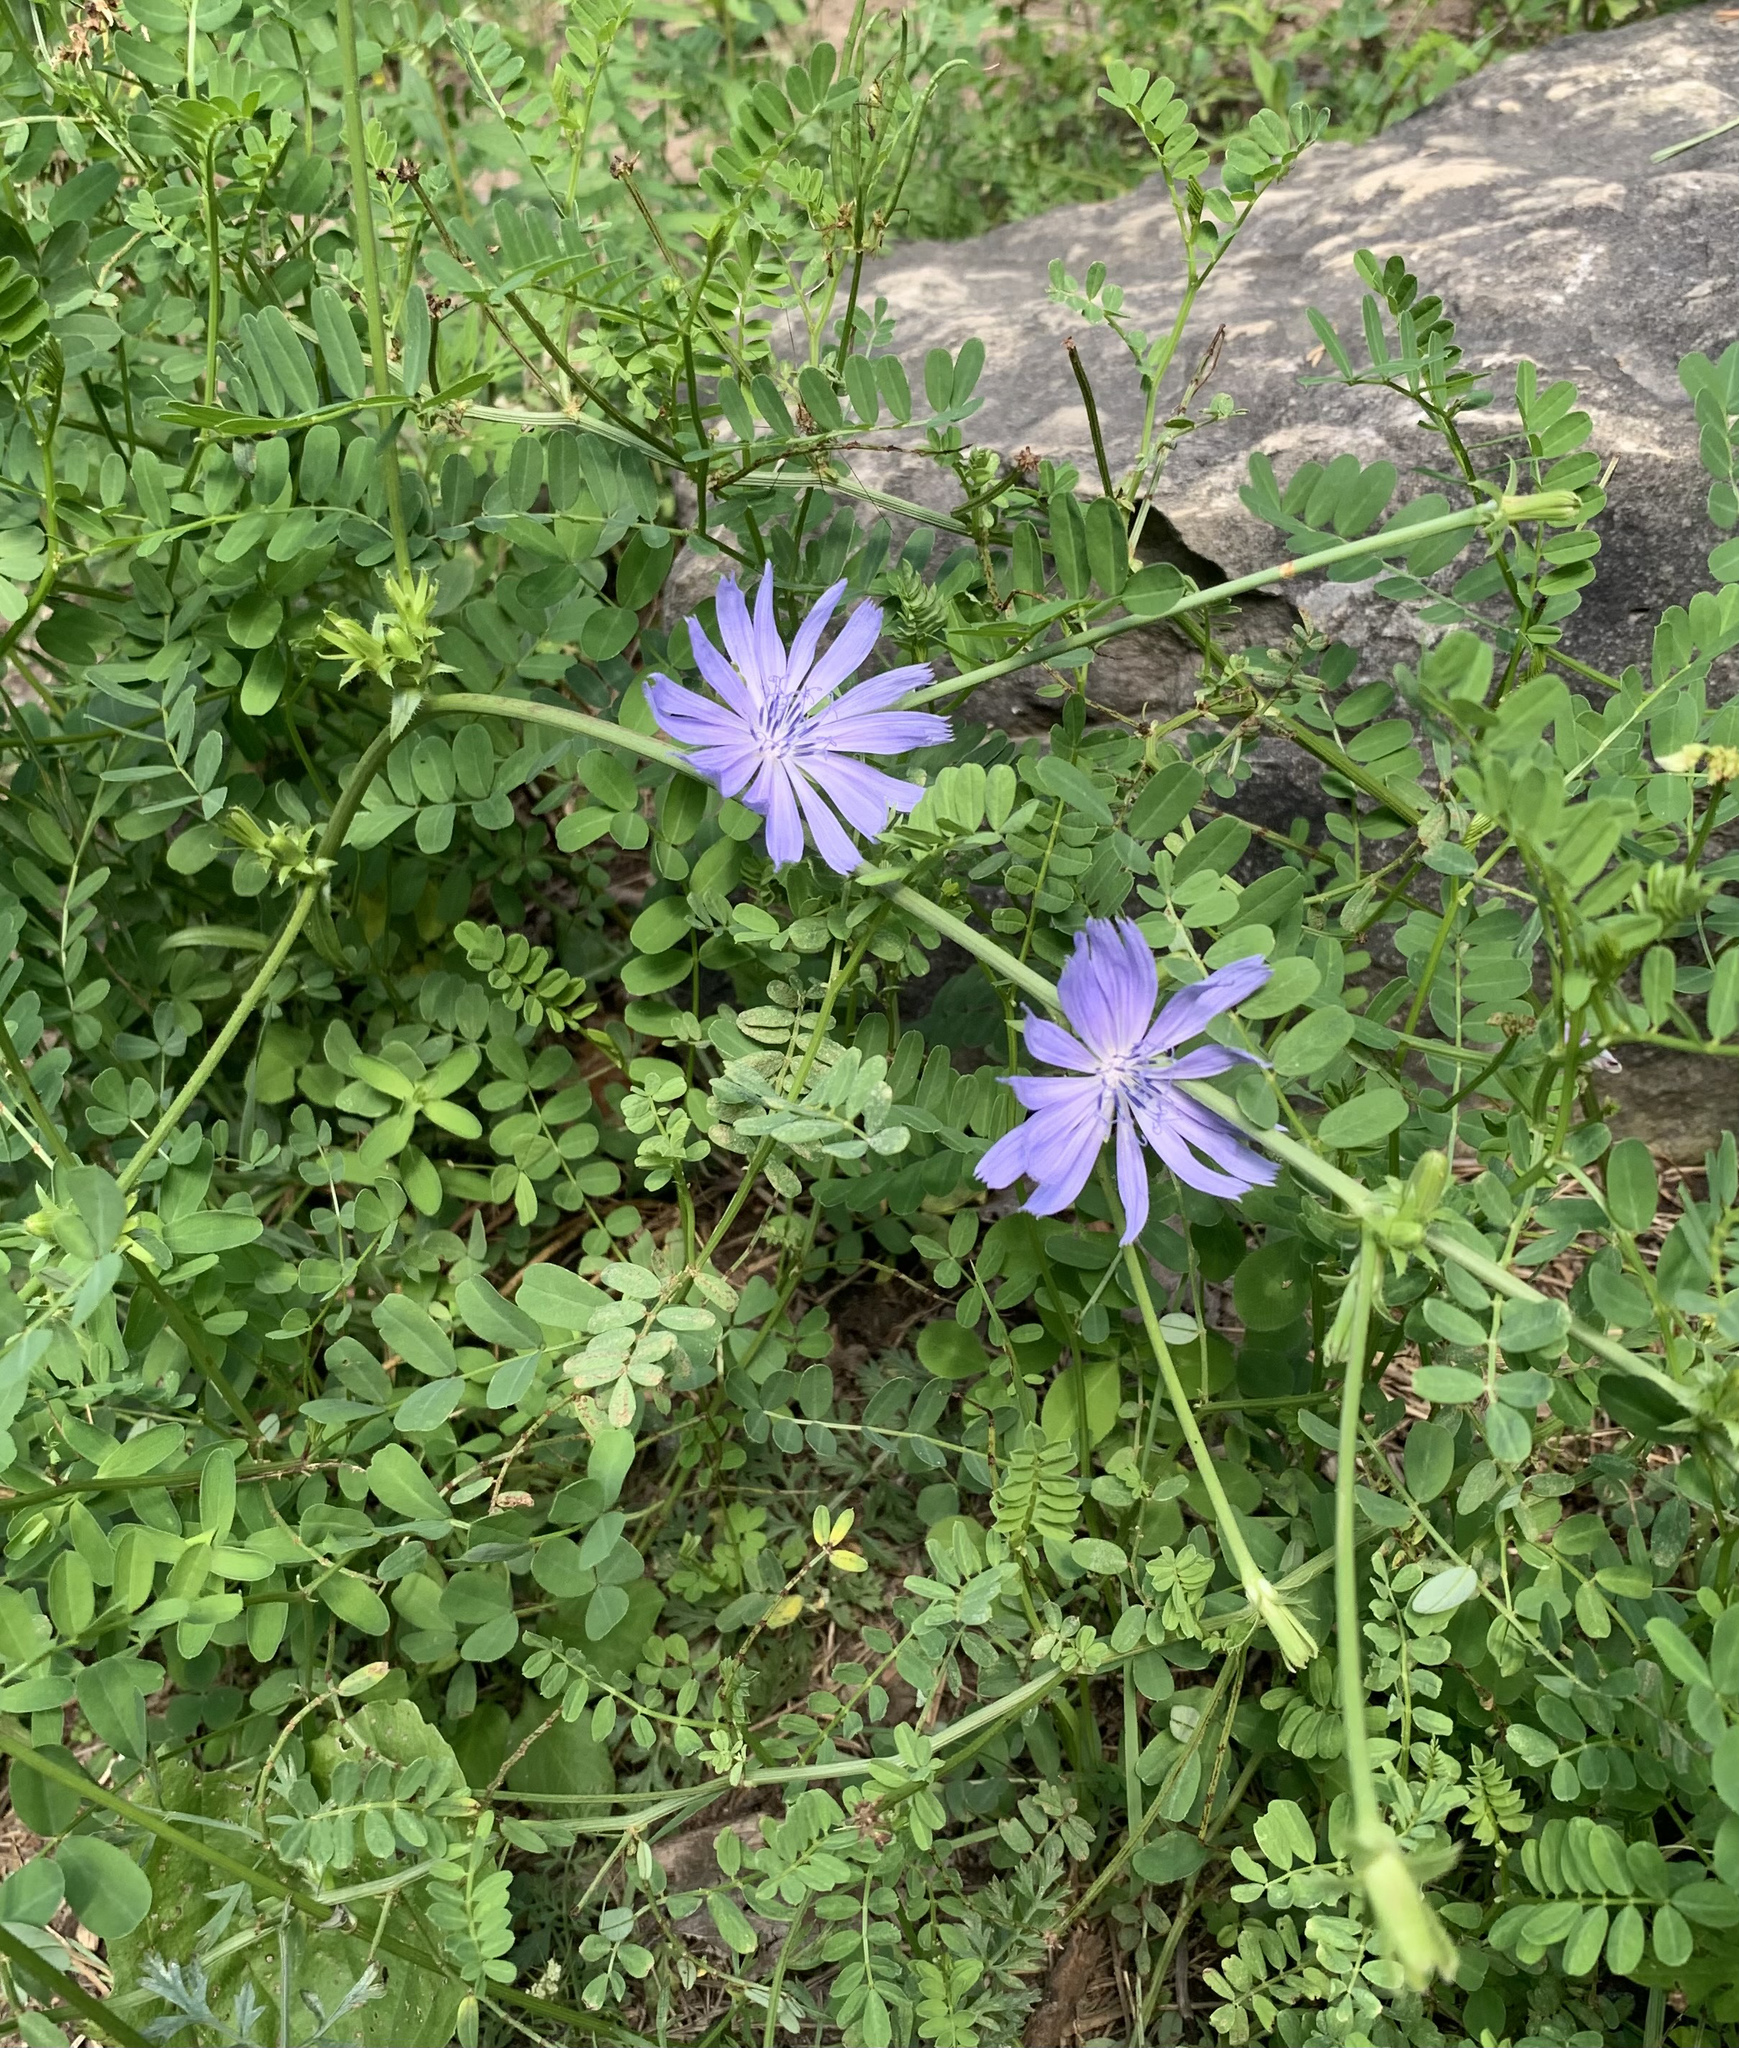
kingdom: Plantae
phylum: Tracheophyta
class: Magnoliopsida
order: Asterales
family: Asteraceae
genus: Cichorium
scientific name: Cichorium intybus
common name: Chicory
